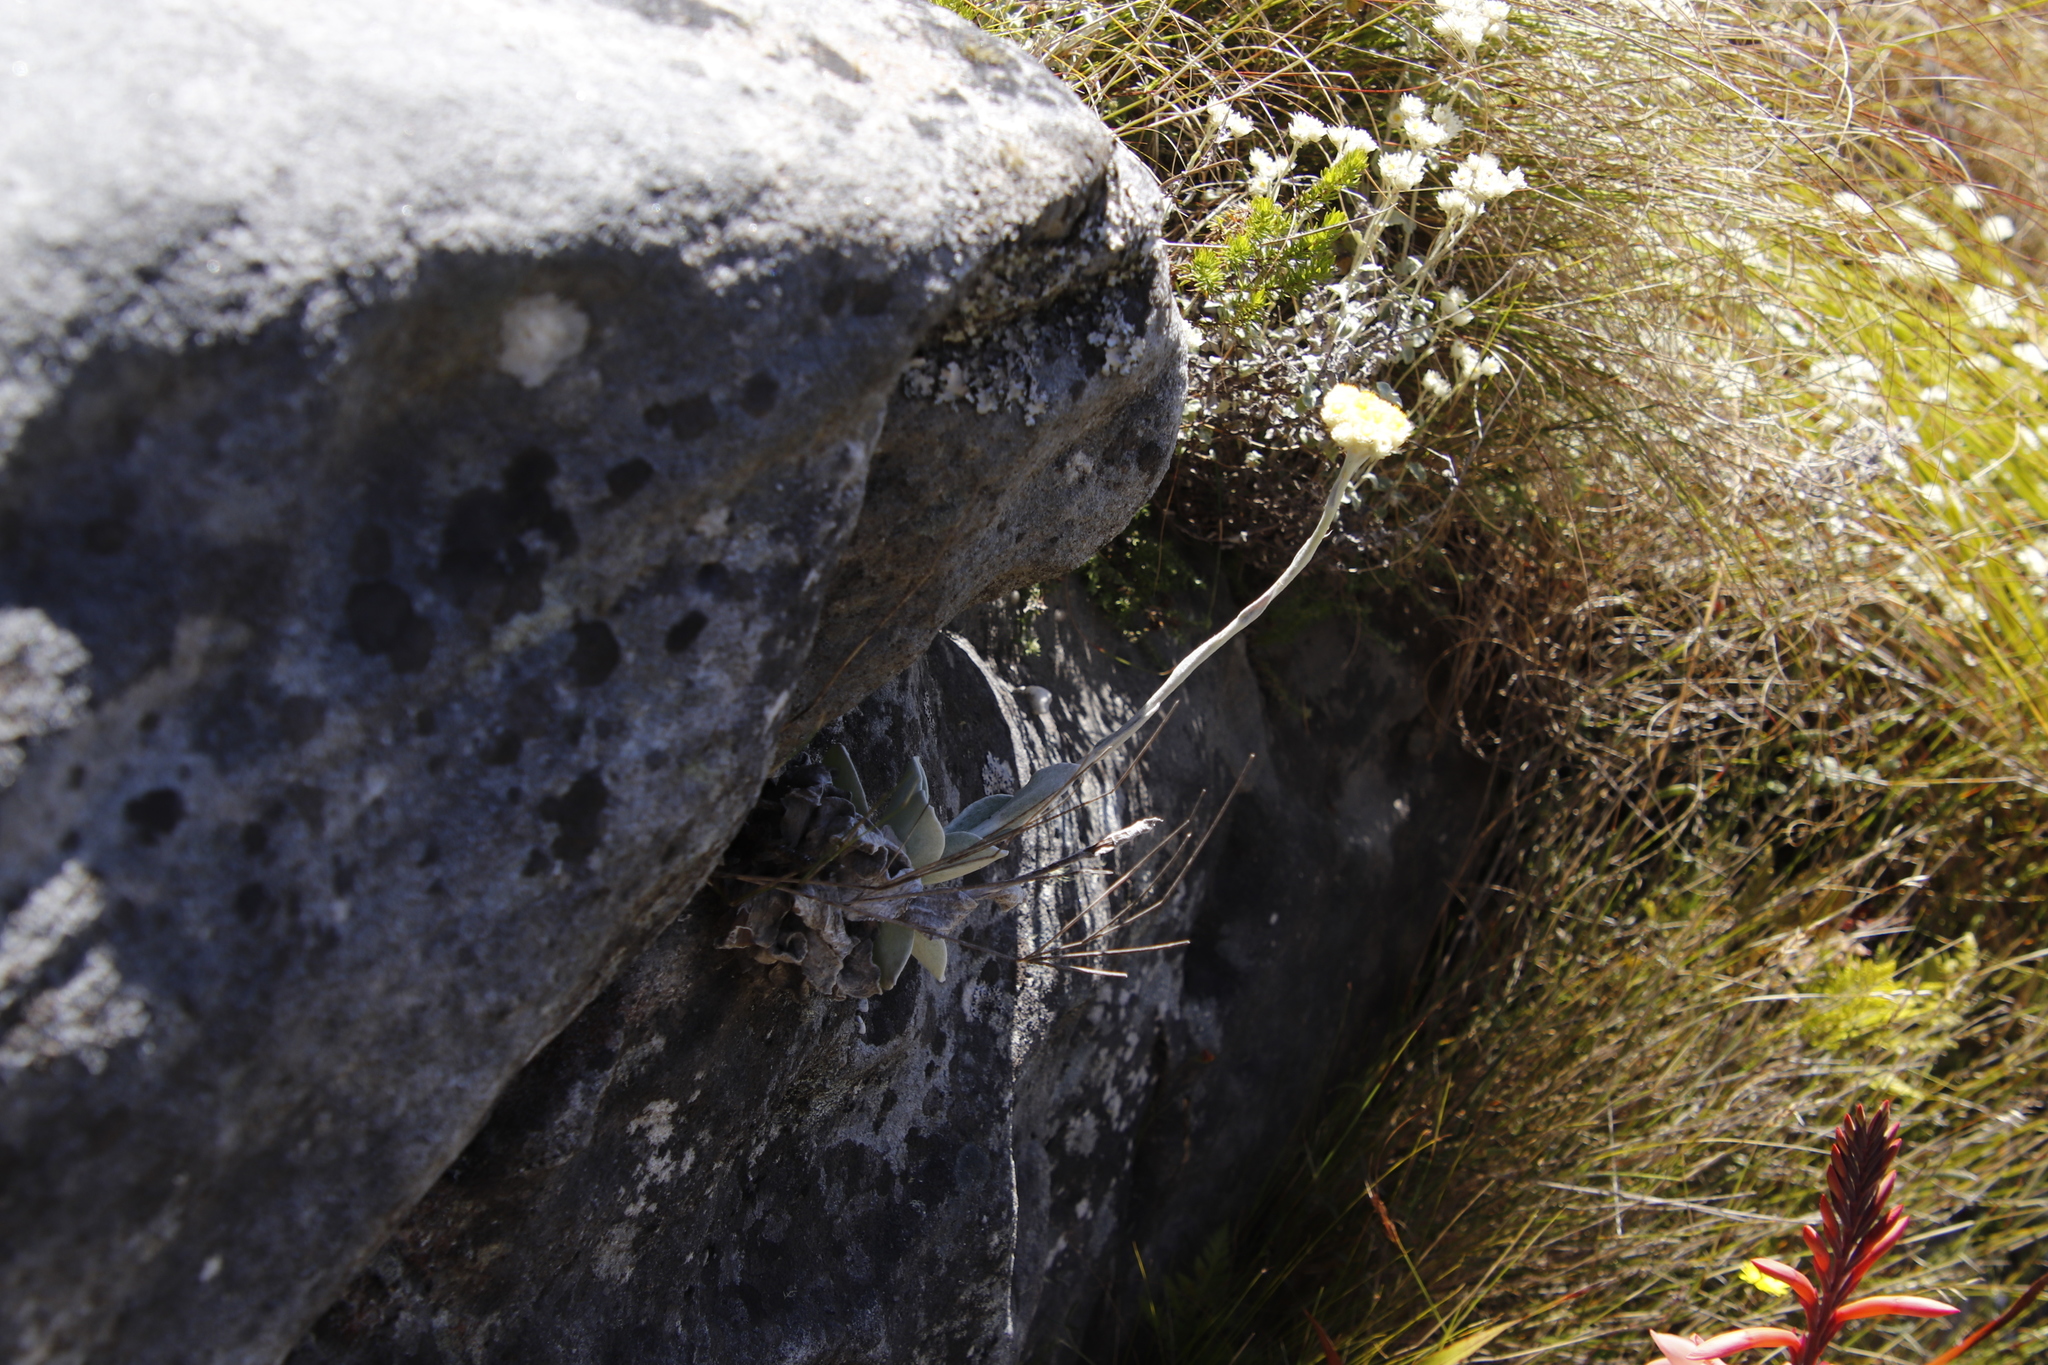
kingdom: Plantae
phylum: Tracheophyta
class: Magnoliopsida
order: Asterales
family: Asteraceae
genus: Helichrysum
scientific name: Helichrysum grandiflorum
